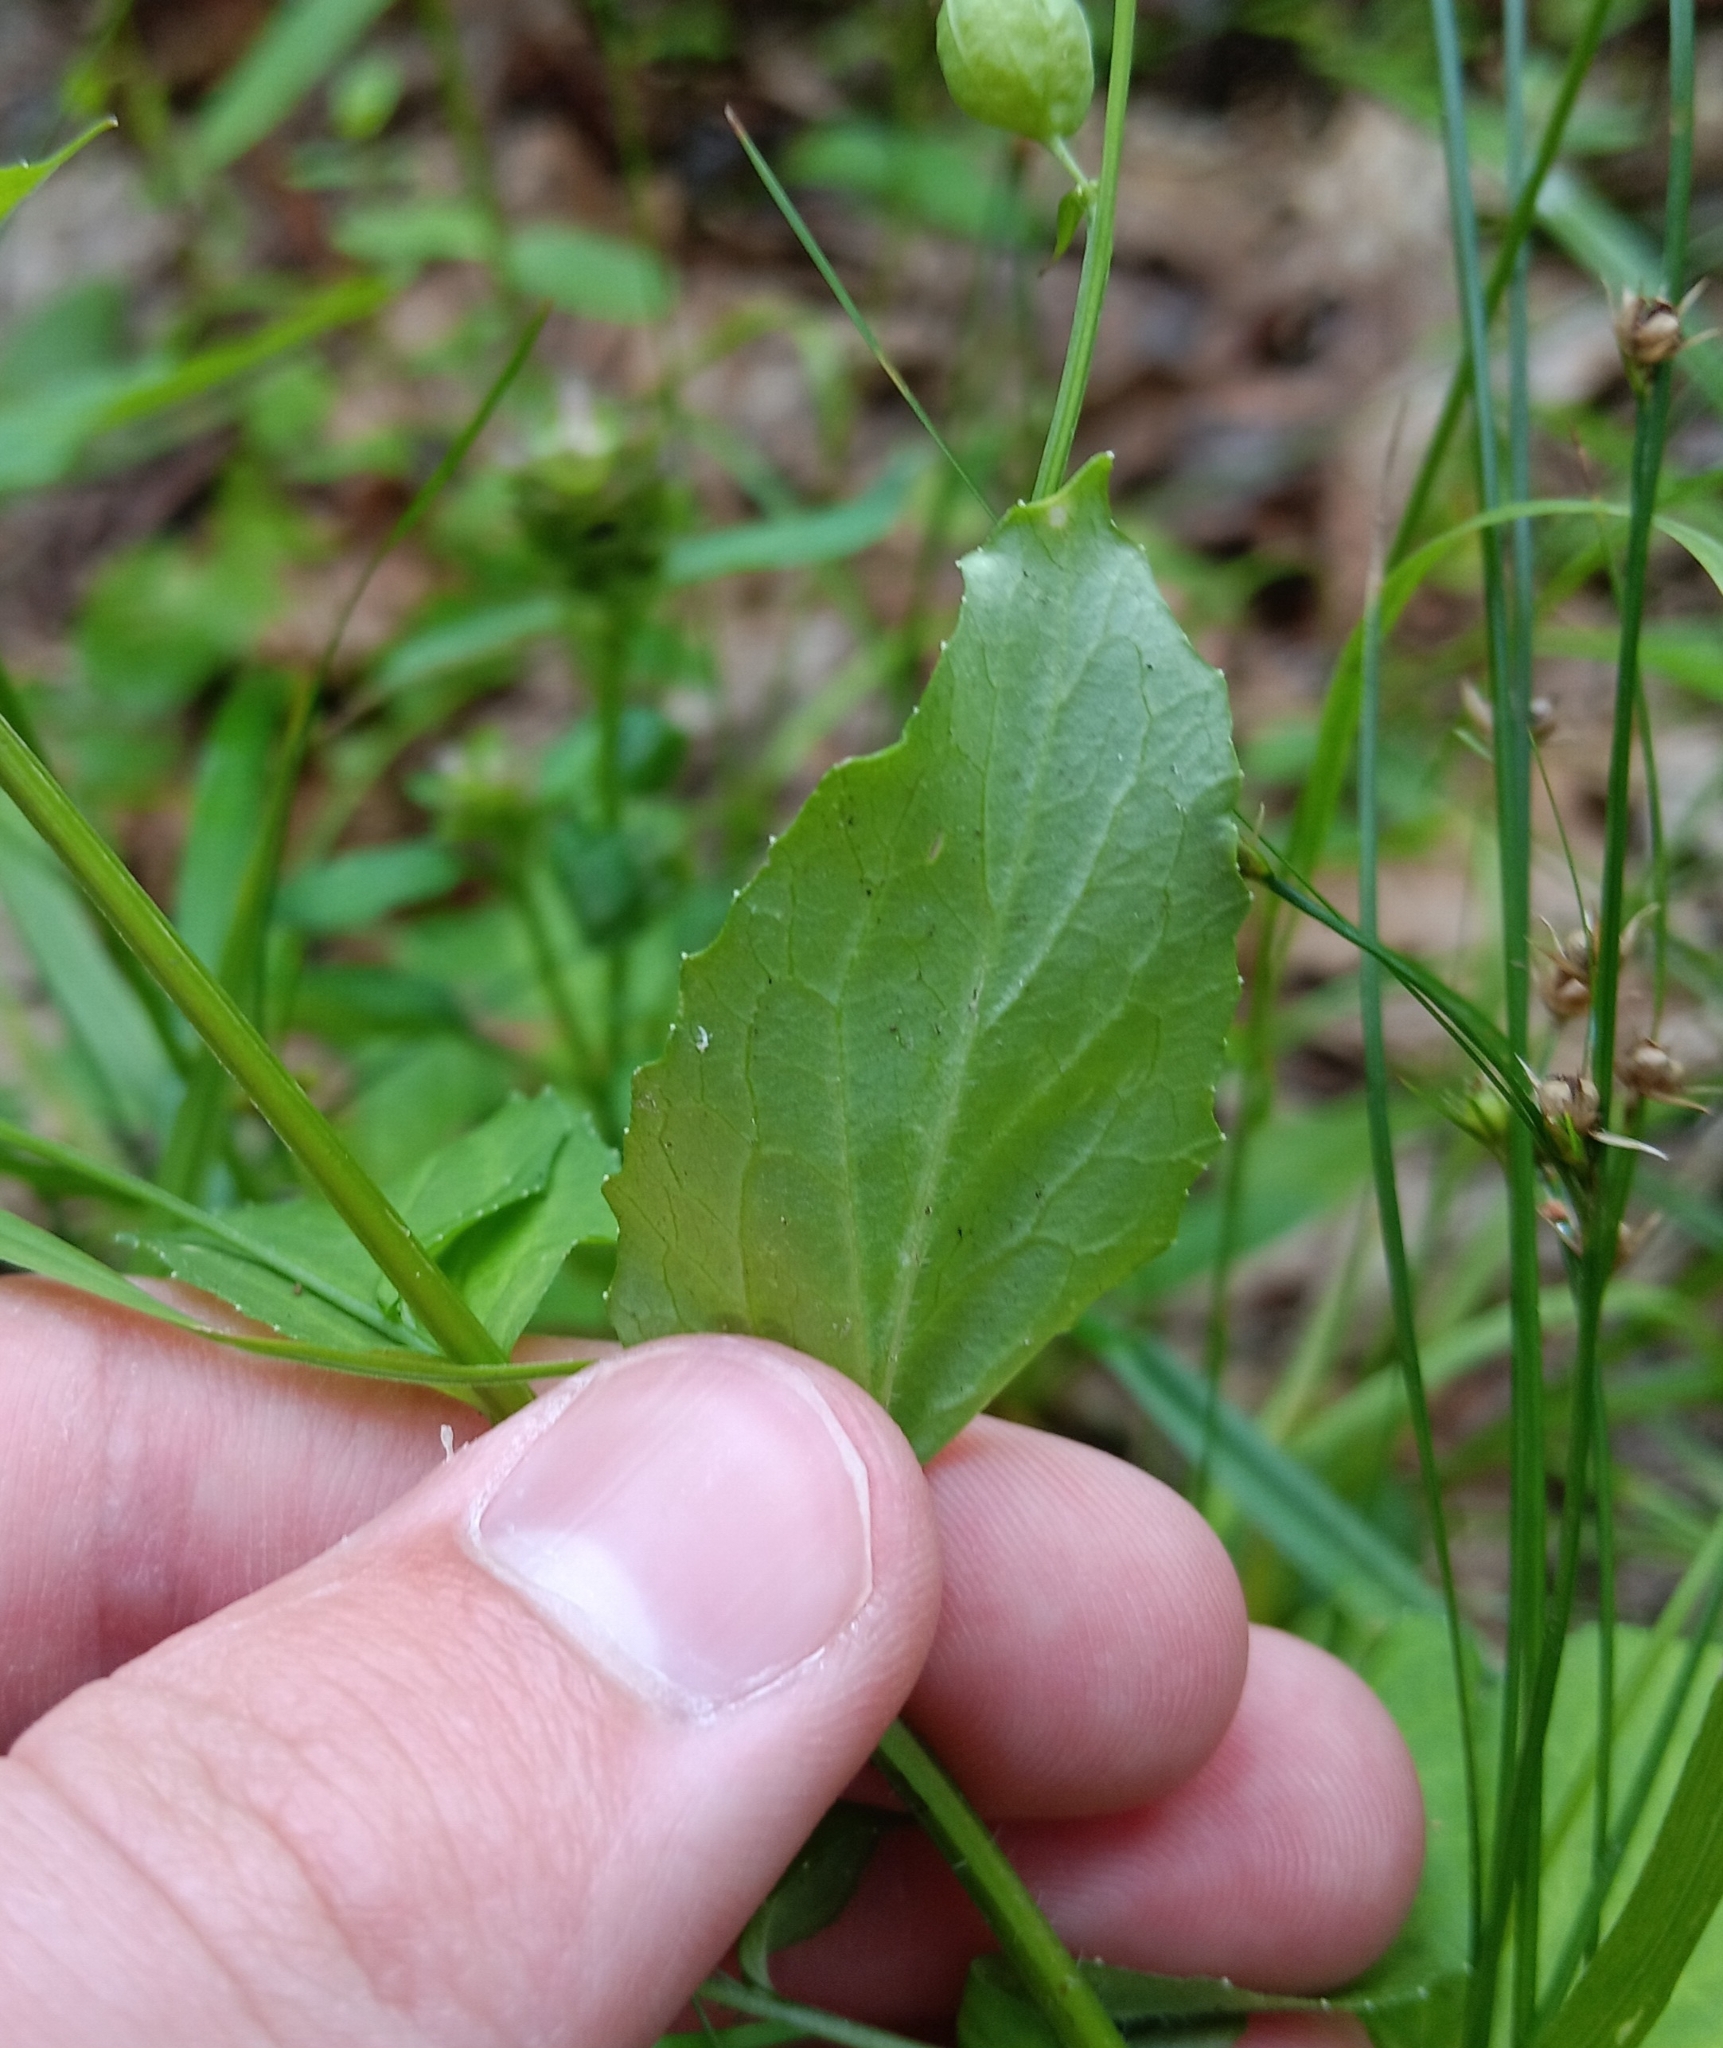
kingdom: Plantae
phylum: Tracheophyta
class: Magnoliopsida
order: Asterales
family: Campanulaceae
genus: Lobelia
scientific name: Lobelia inflata
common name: Indian tobacco
